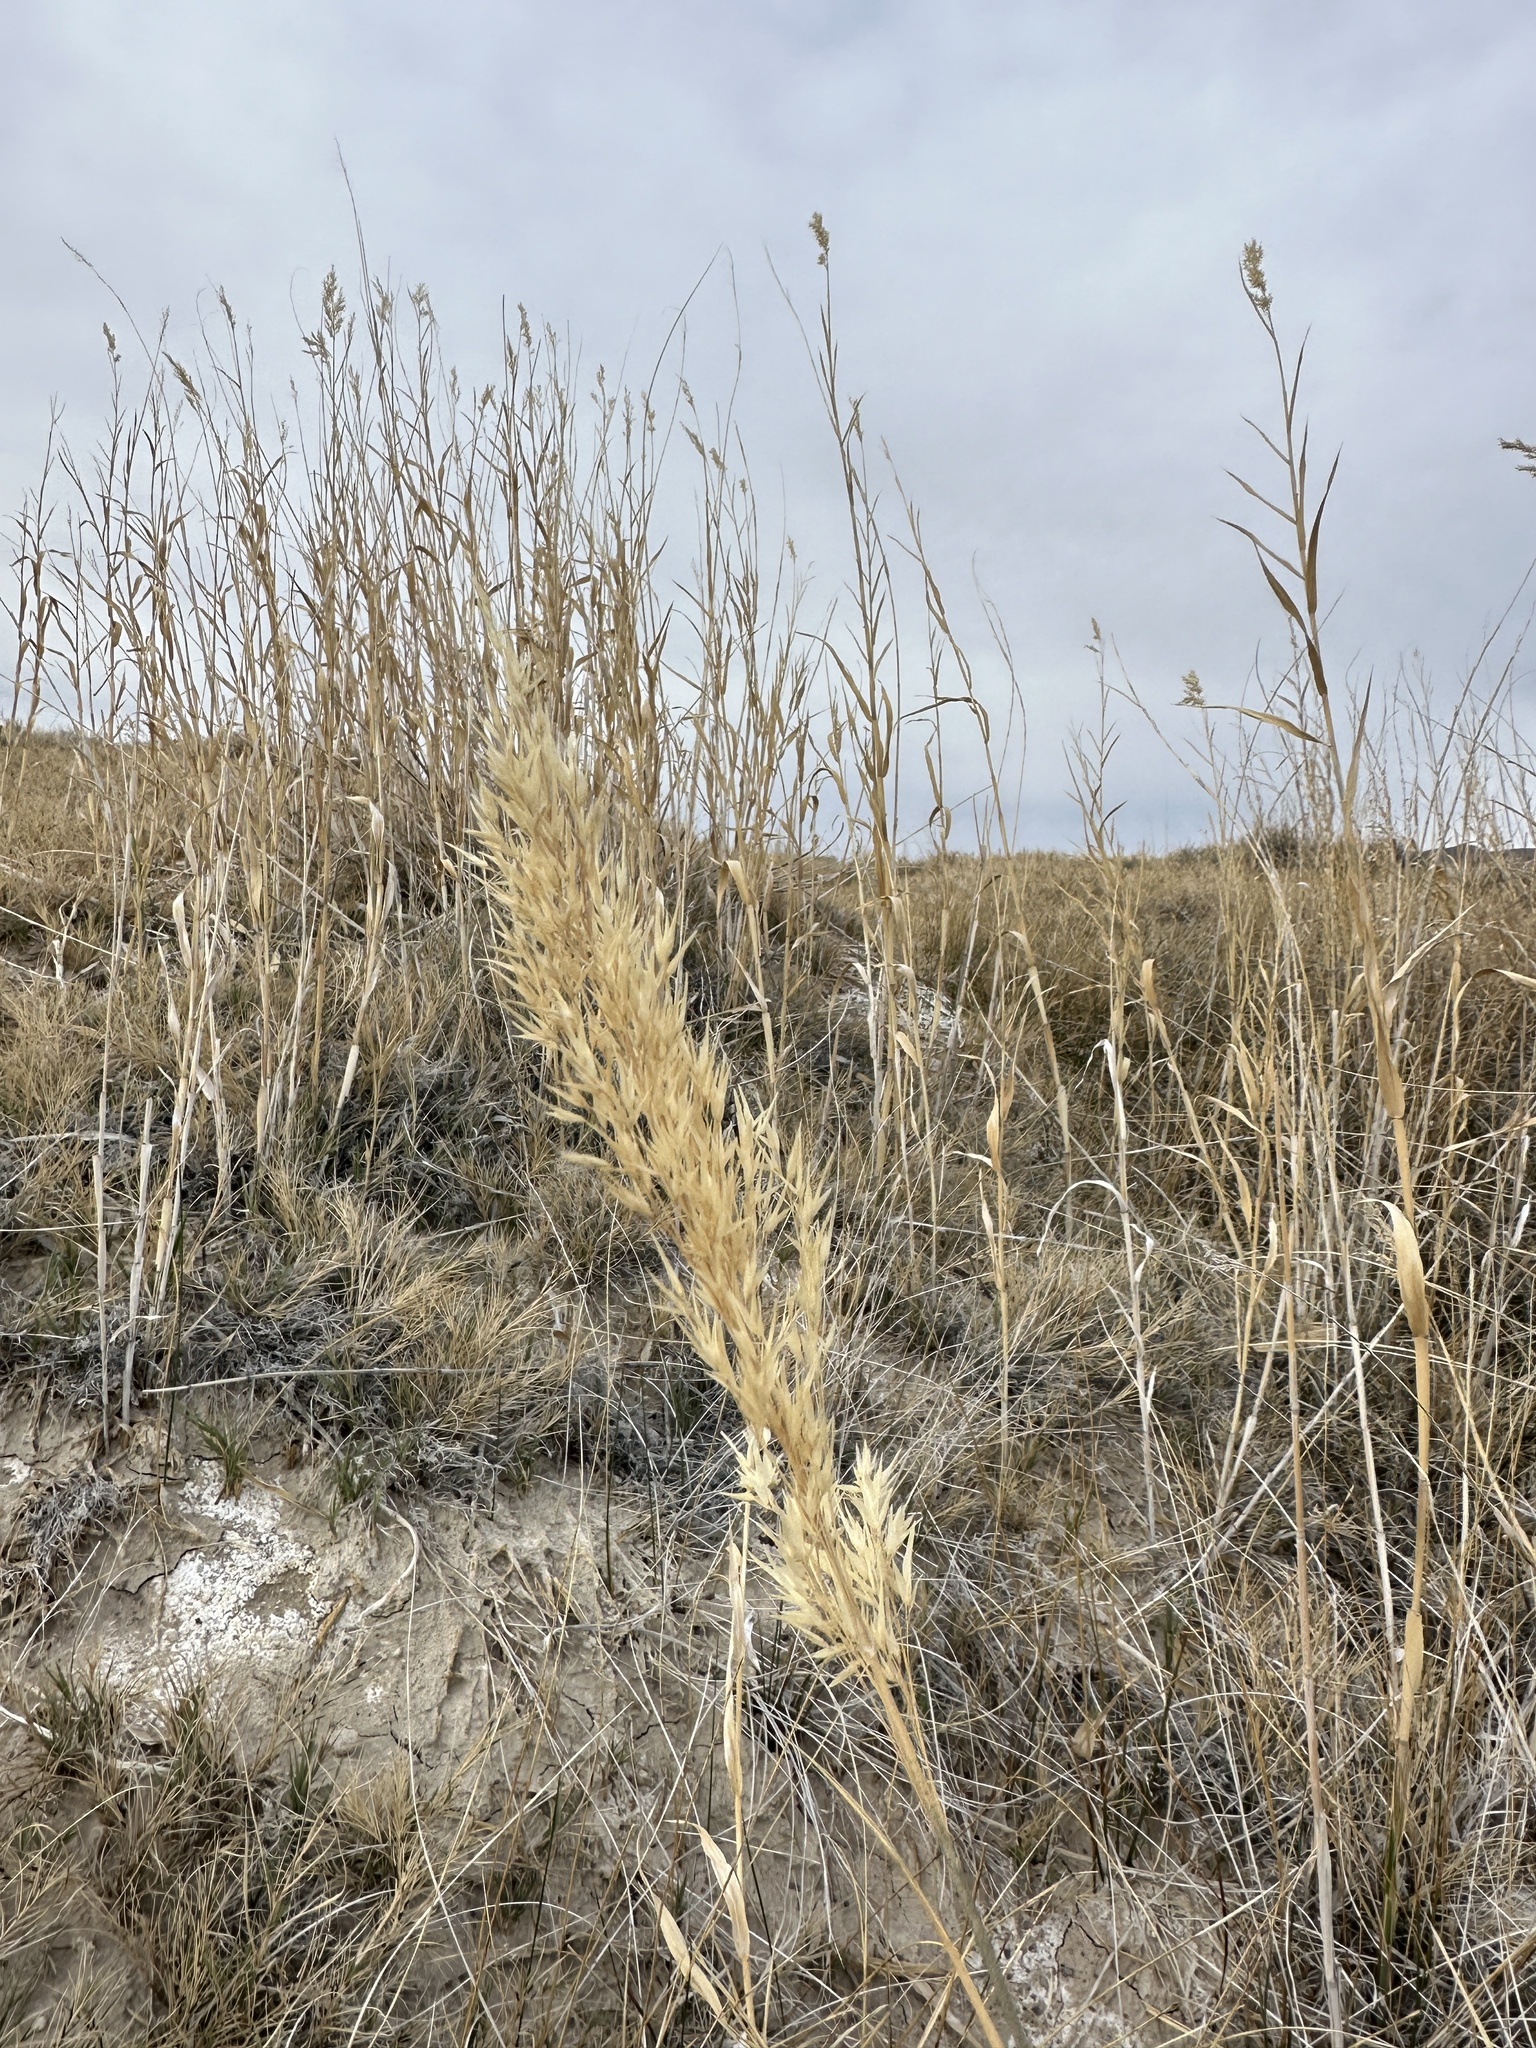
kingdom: Plantae
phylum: Tracheophyta
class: Liliopsida
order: Poales
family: Poaceae
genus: Phragmites
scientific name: Phragmites australis
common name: Common reed
